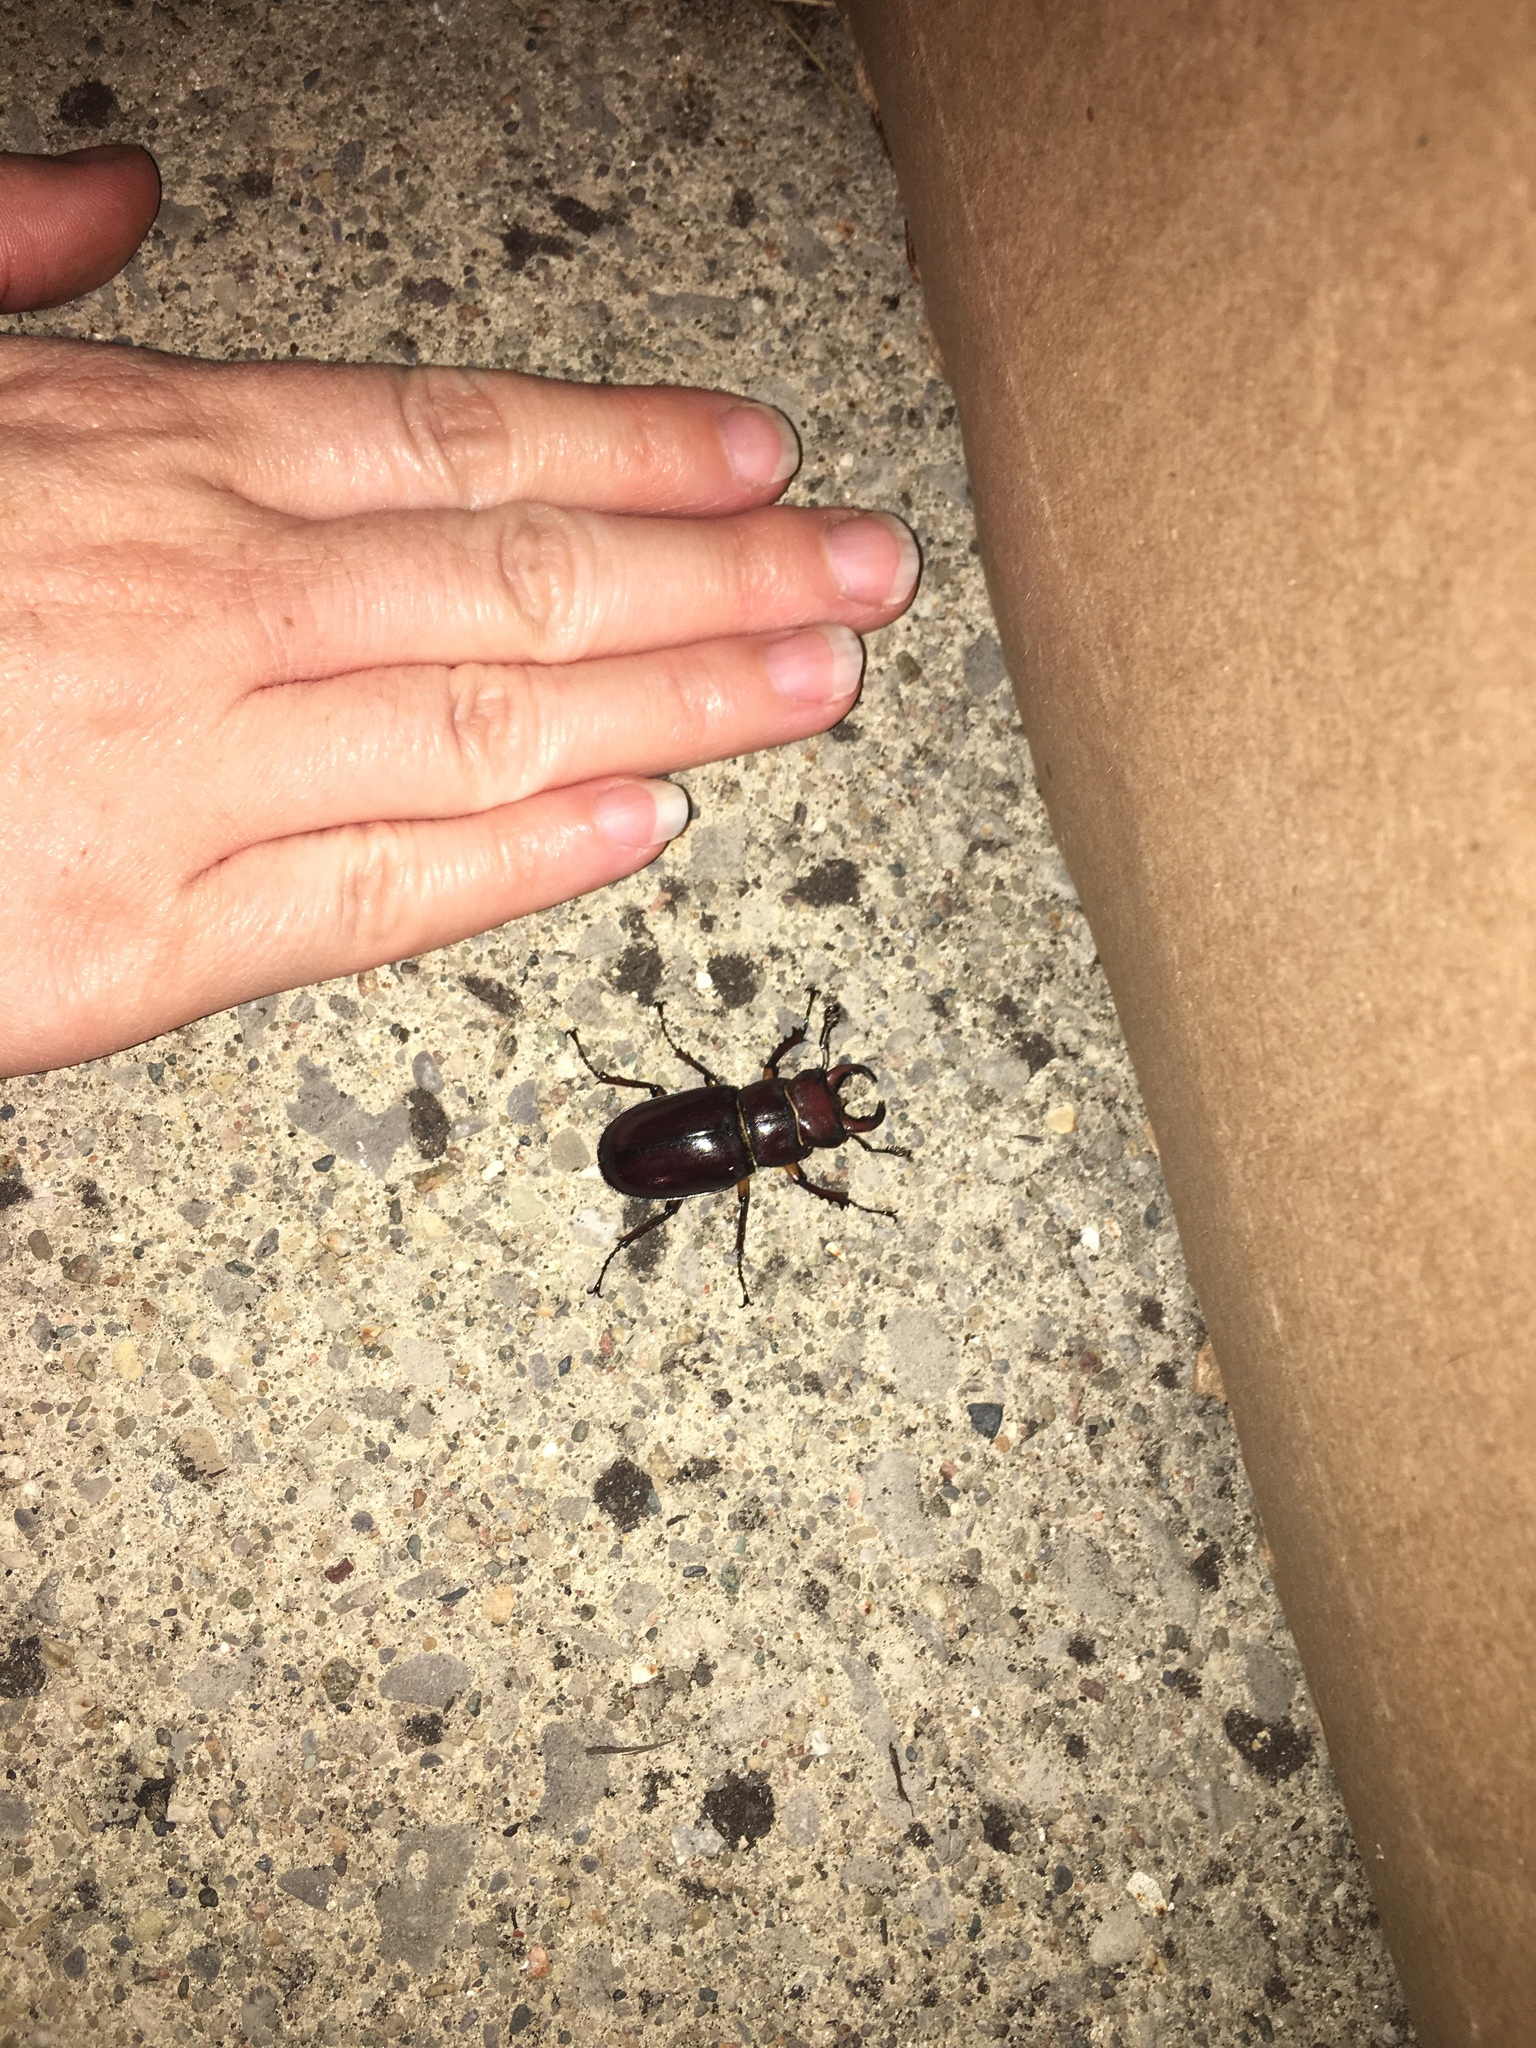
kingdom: Animalia
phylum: Arthropoda
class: Insecta
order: Coleoptera
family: Lucanidae
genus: Lucanus
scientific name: Lucanus capreolus
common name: Stag beetle
